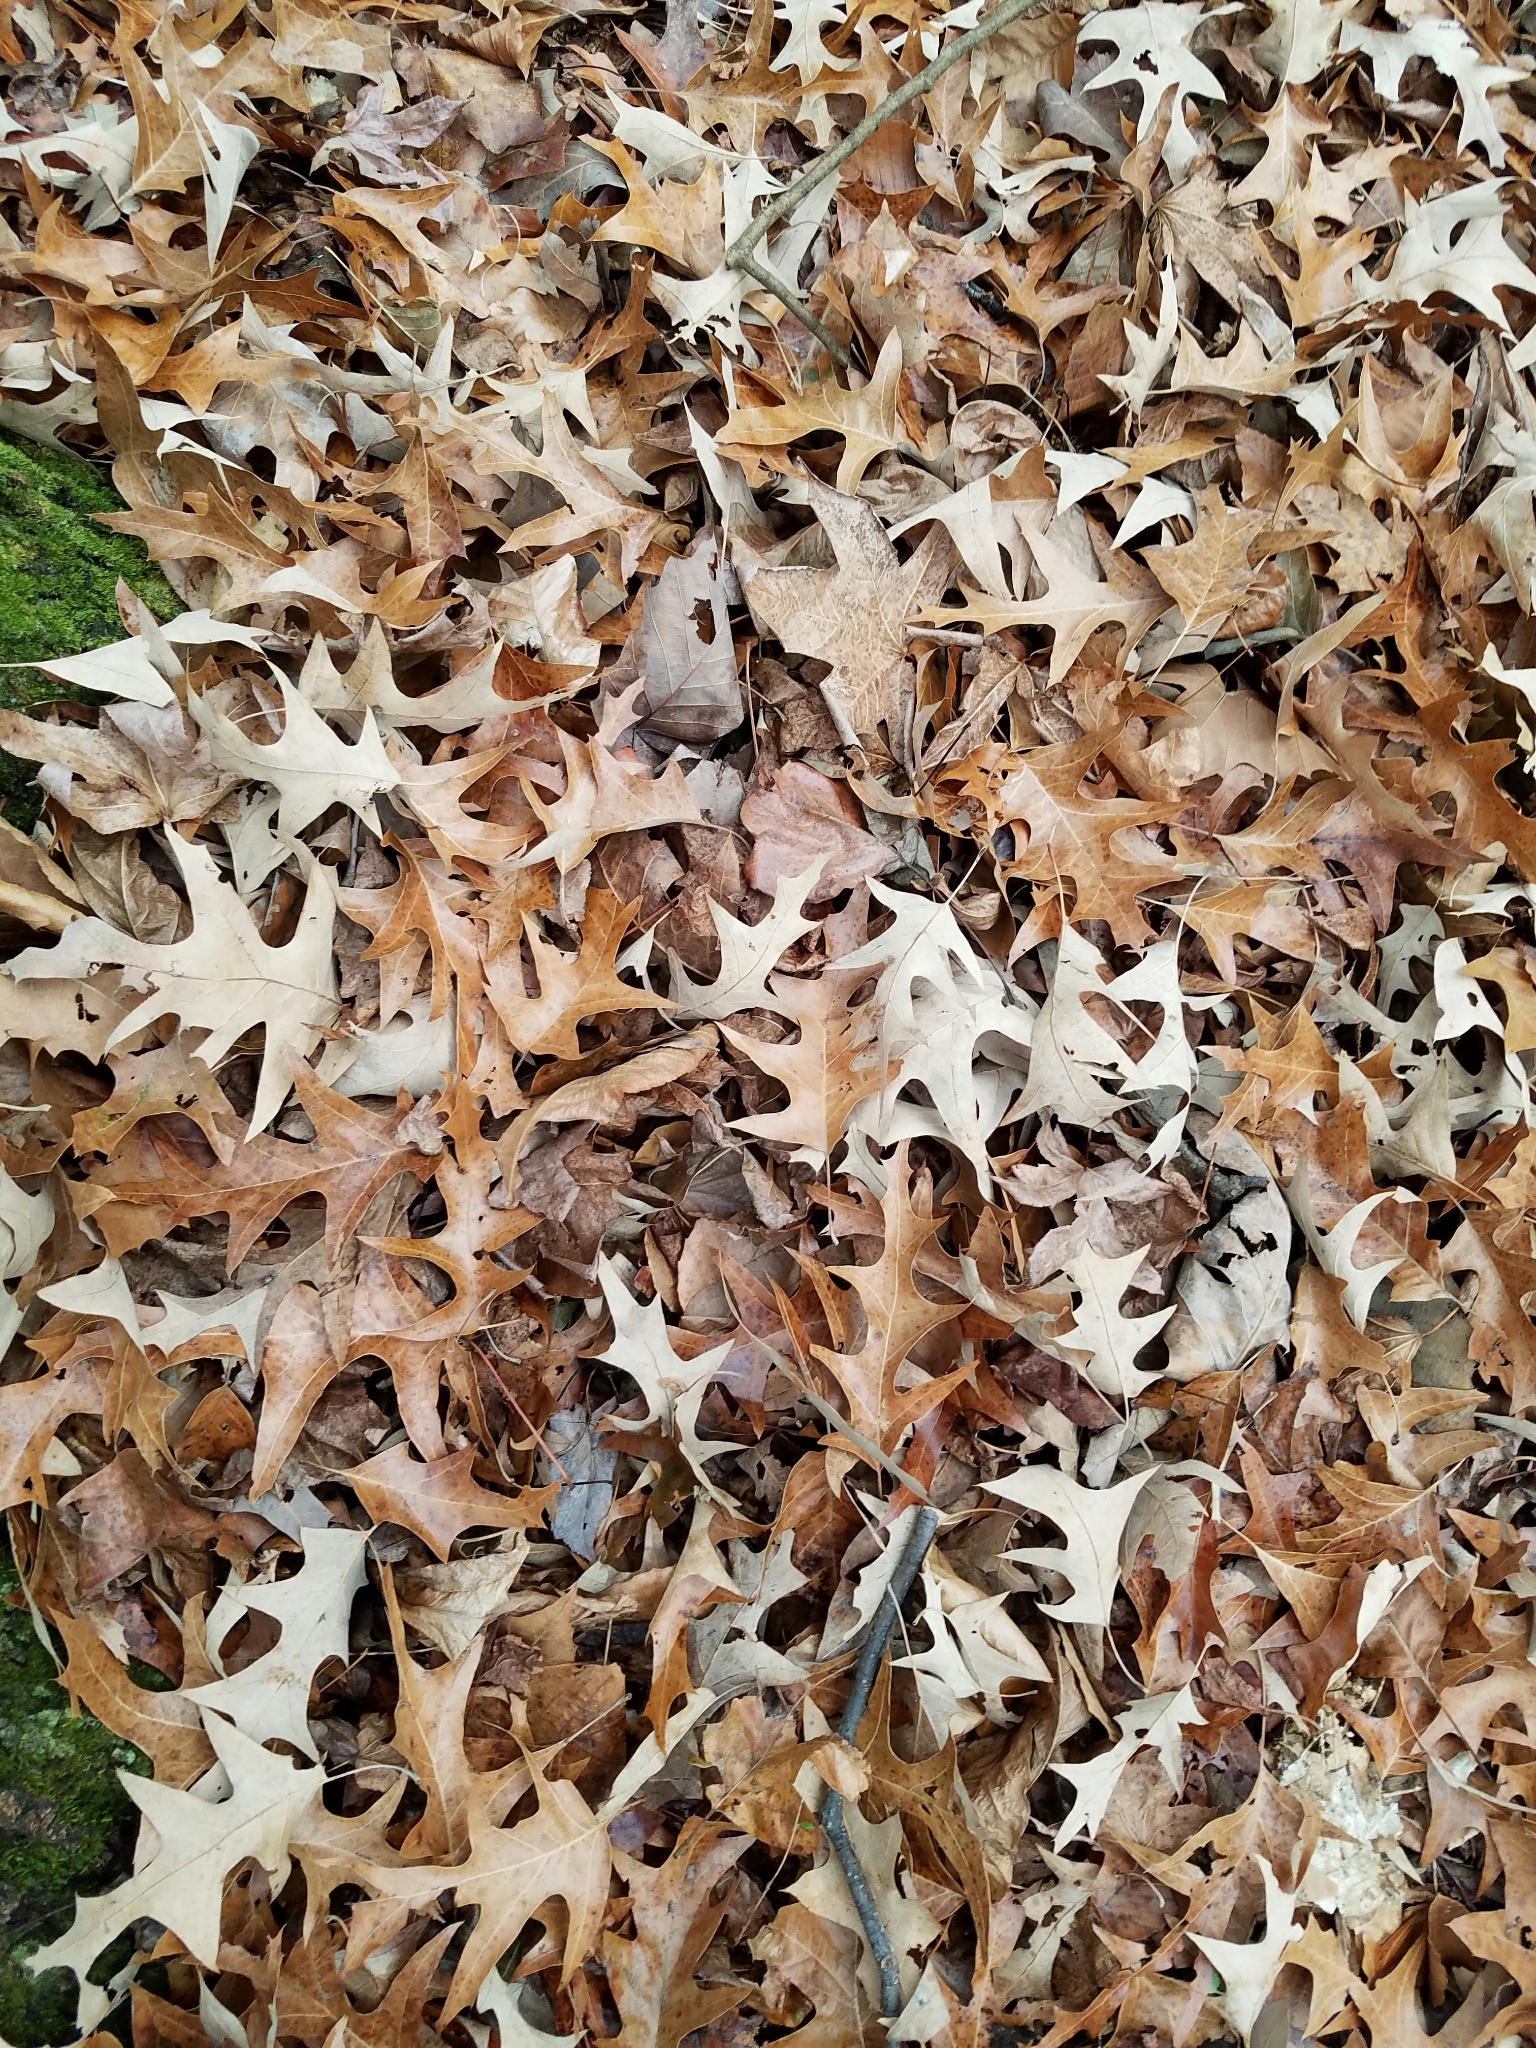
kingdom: Plantae
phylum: Tracheophyta
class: Magnoliopsida
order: Fagales
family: Fagaceae
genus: Quercus
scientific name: Quercus pagoda
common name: Cherrybark oak
